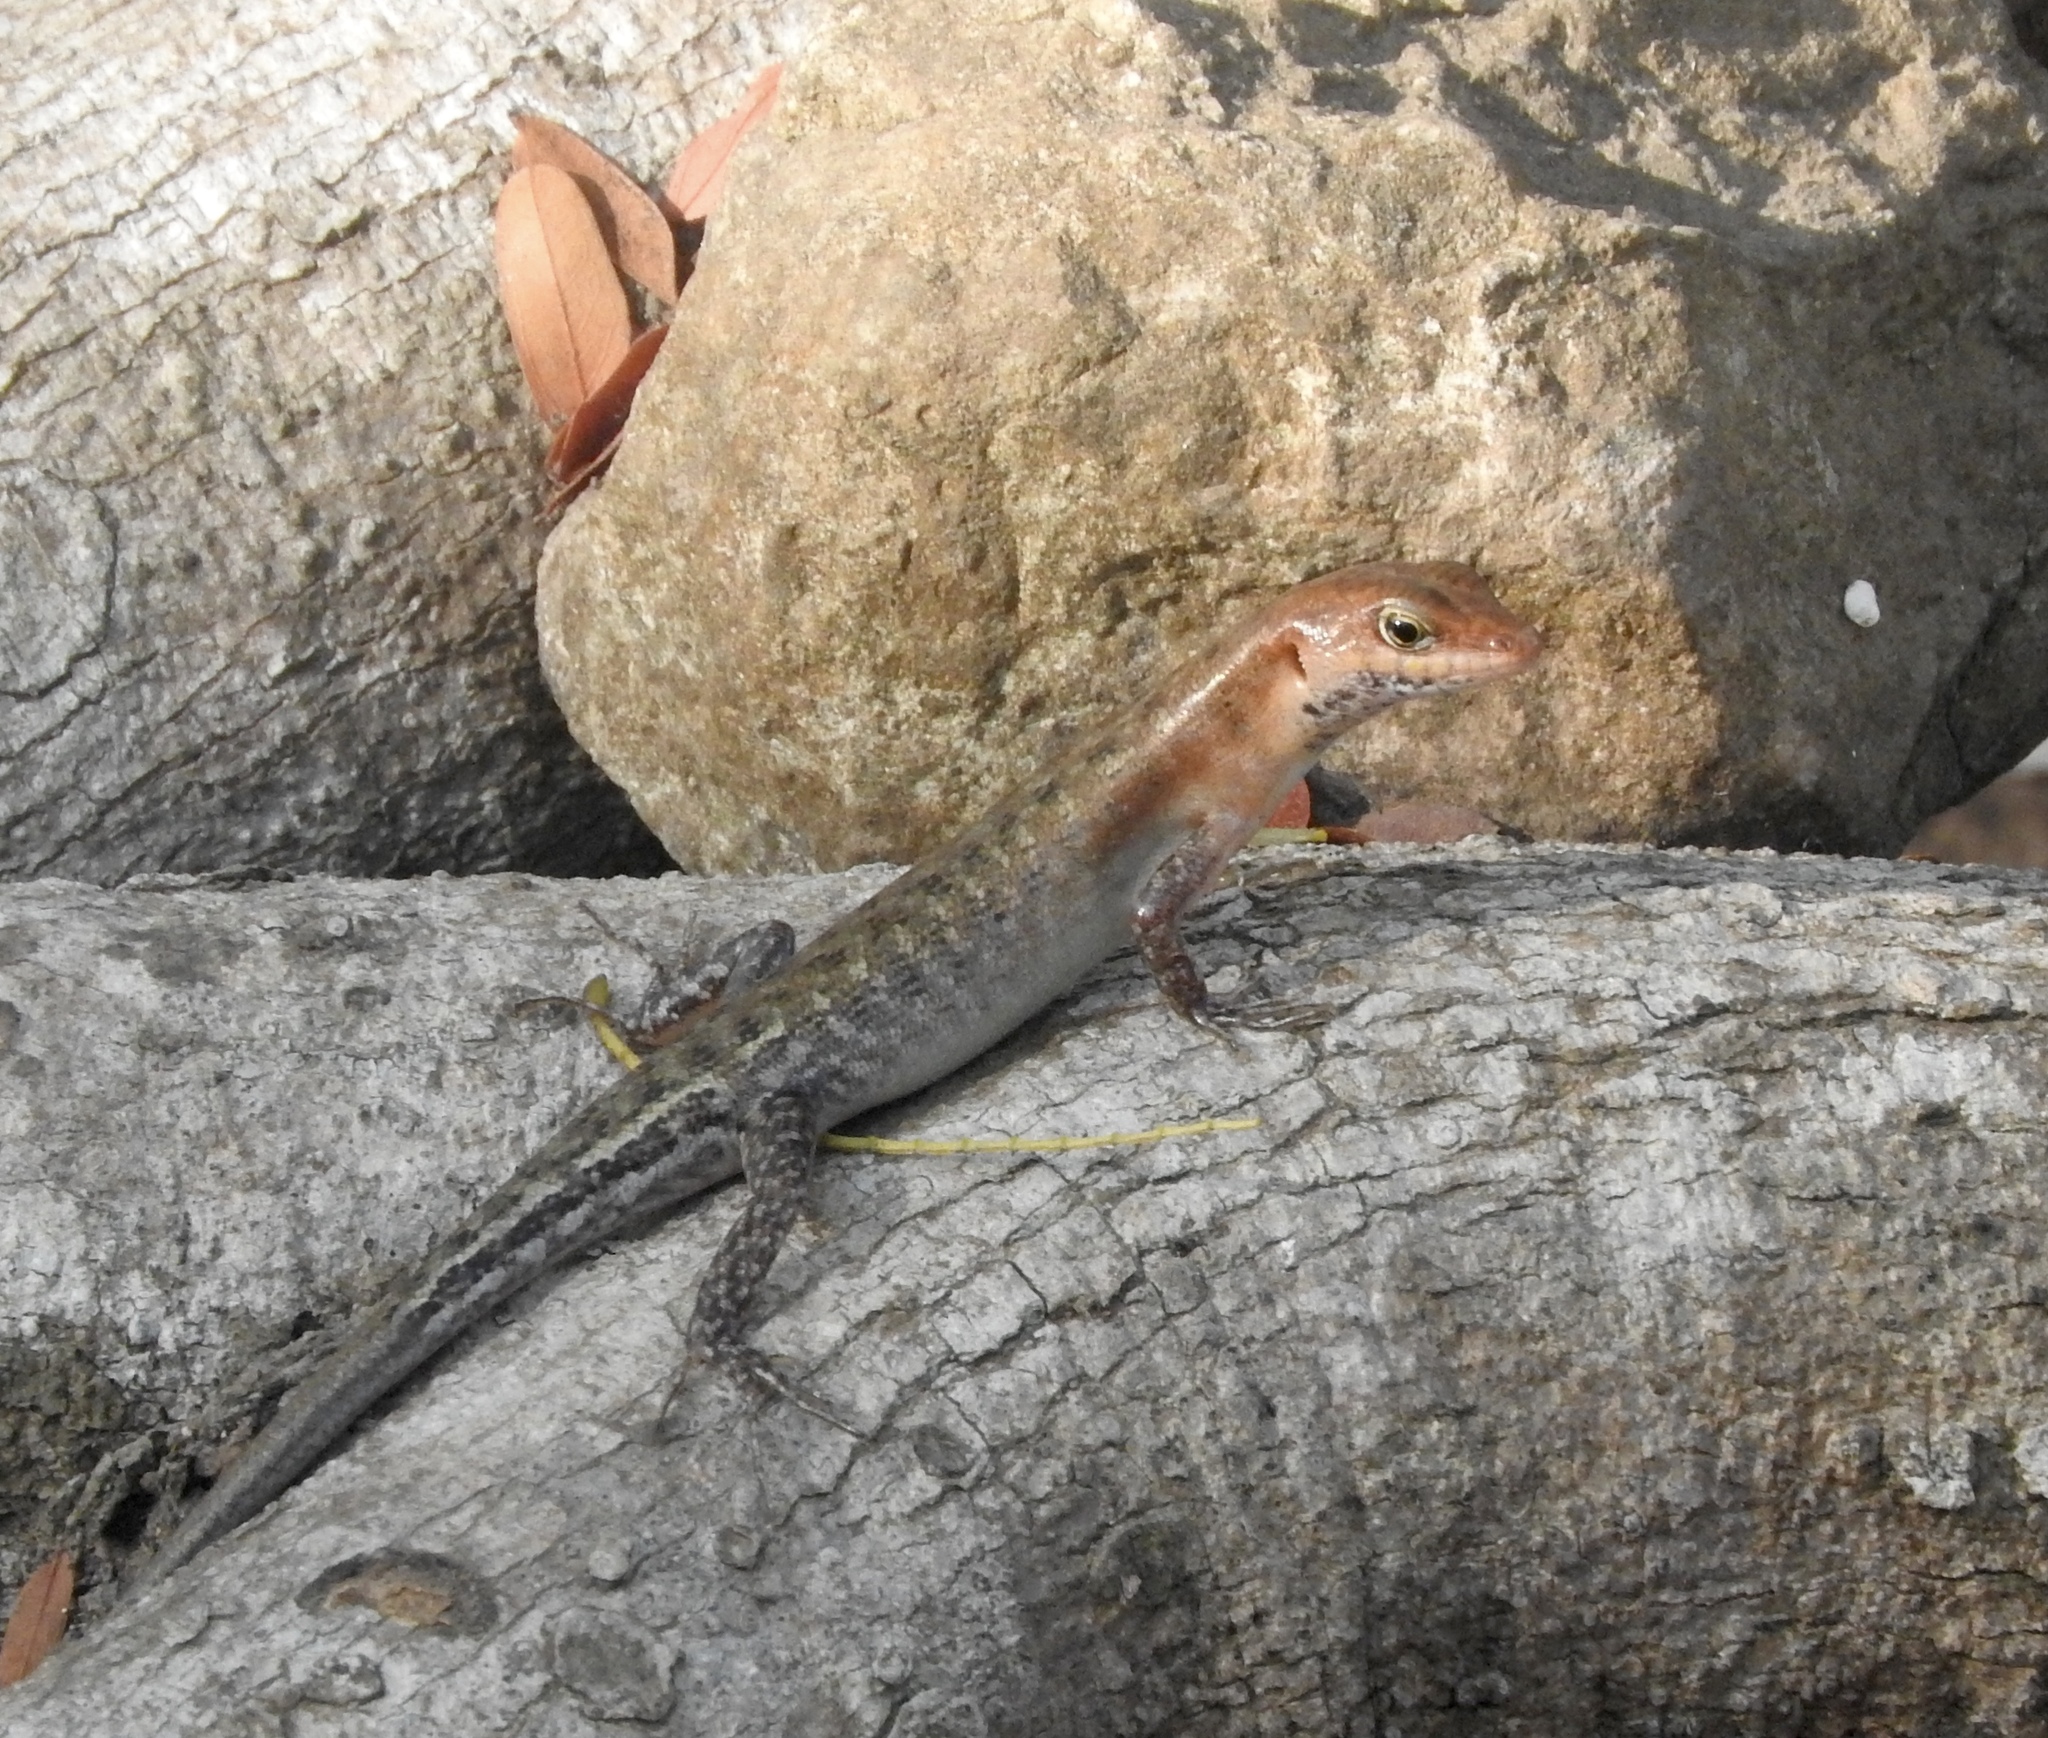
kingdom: Animalia
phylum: Chordata
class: Squamata
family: Scincidae
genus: Sphenomorphus
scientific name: Sphenomorphus melanopogon
